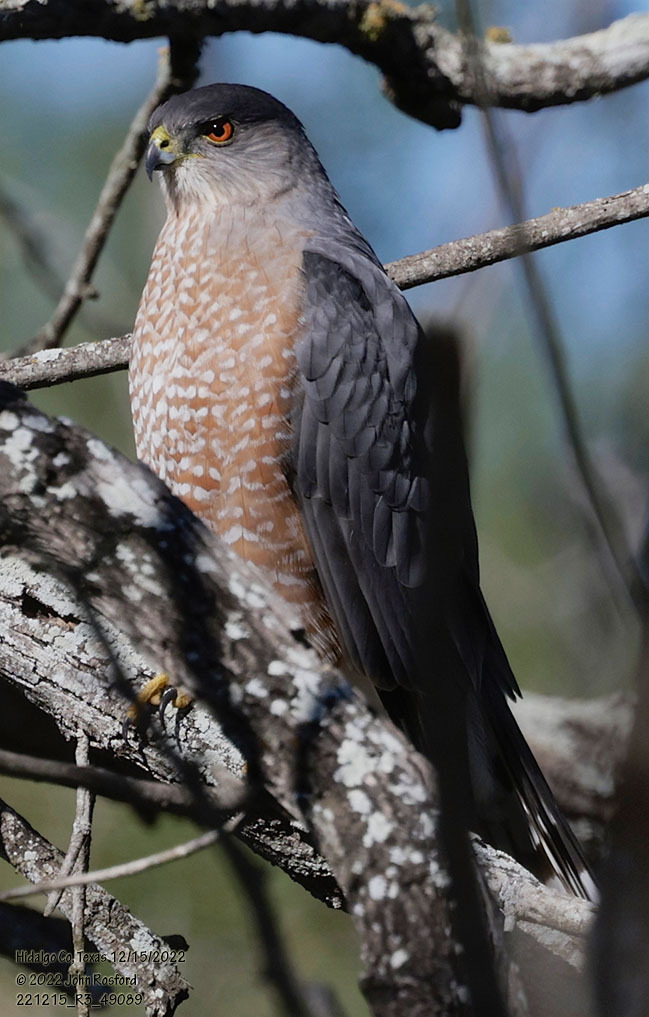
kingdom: Animalia
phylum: Chordata
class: Aves
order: Accipitriformes
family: Accipitridae
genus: Accipiter
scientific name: Accipiter cooperii
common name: Cooper's hawk
